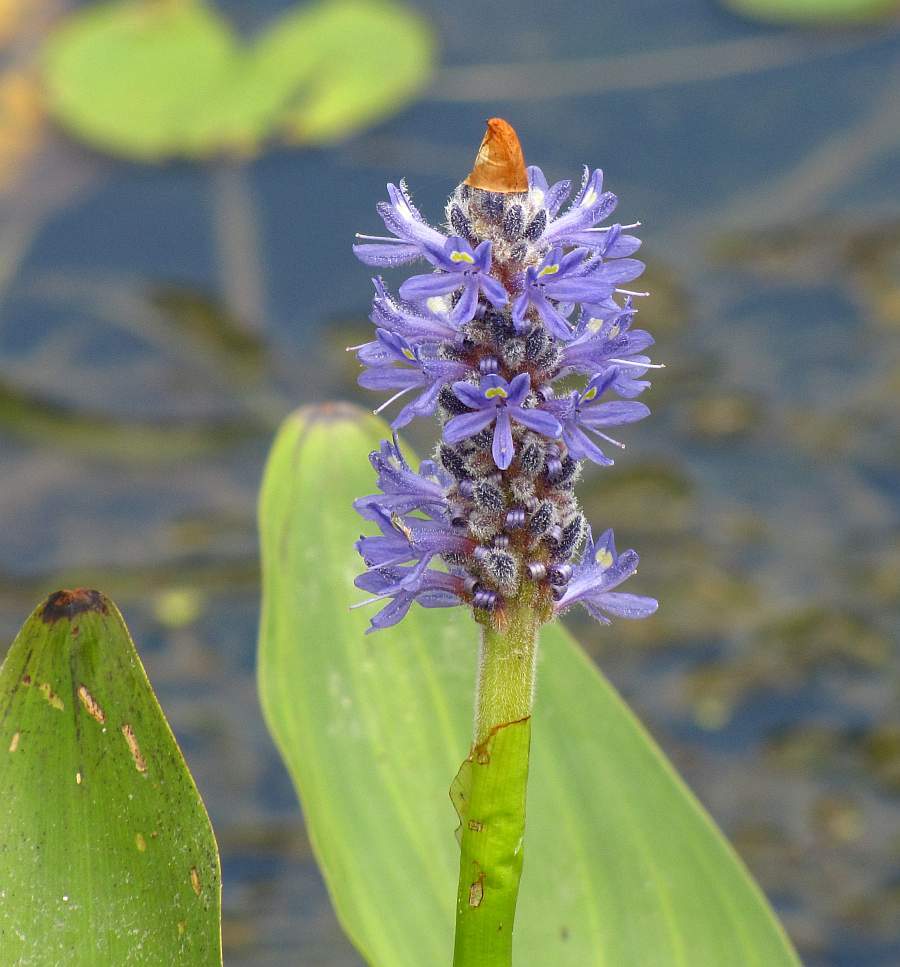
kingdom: Plantae
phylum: Tracheophyta
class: Liliopsida
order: Commelinales
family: Pontederiaceae
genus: Pontederia
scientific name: Pontederia cordata
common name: Pickerelweed
